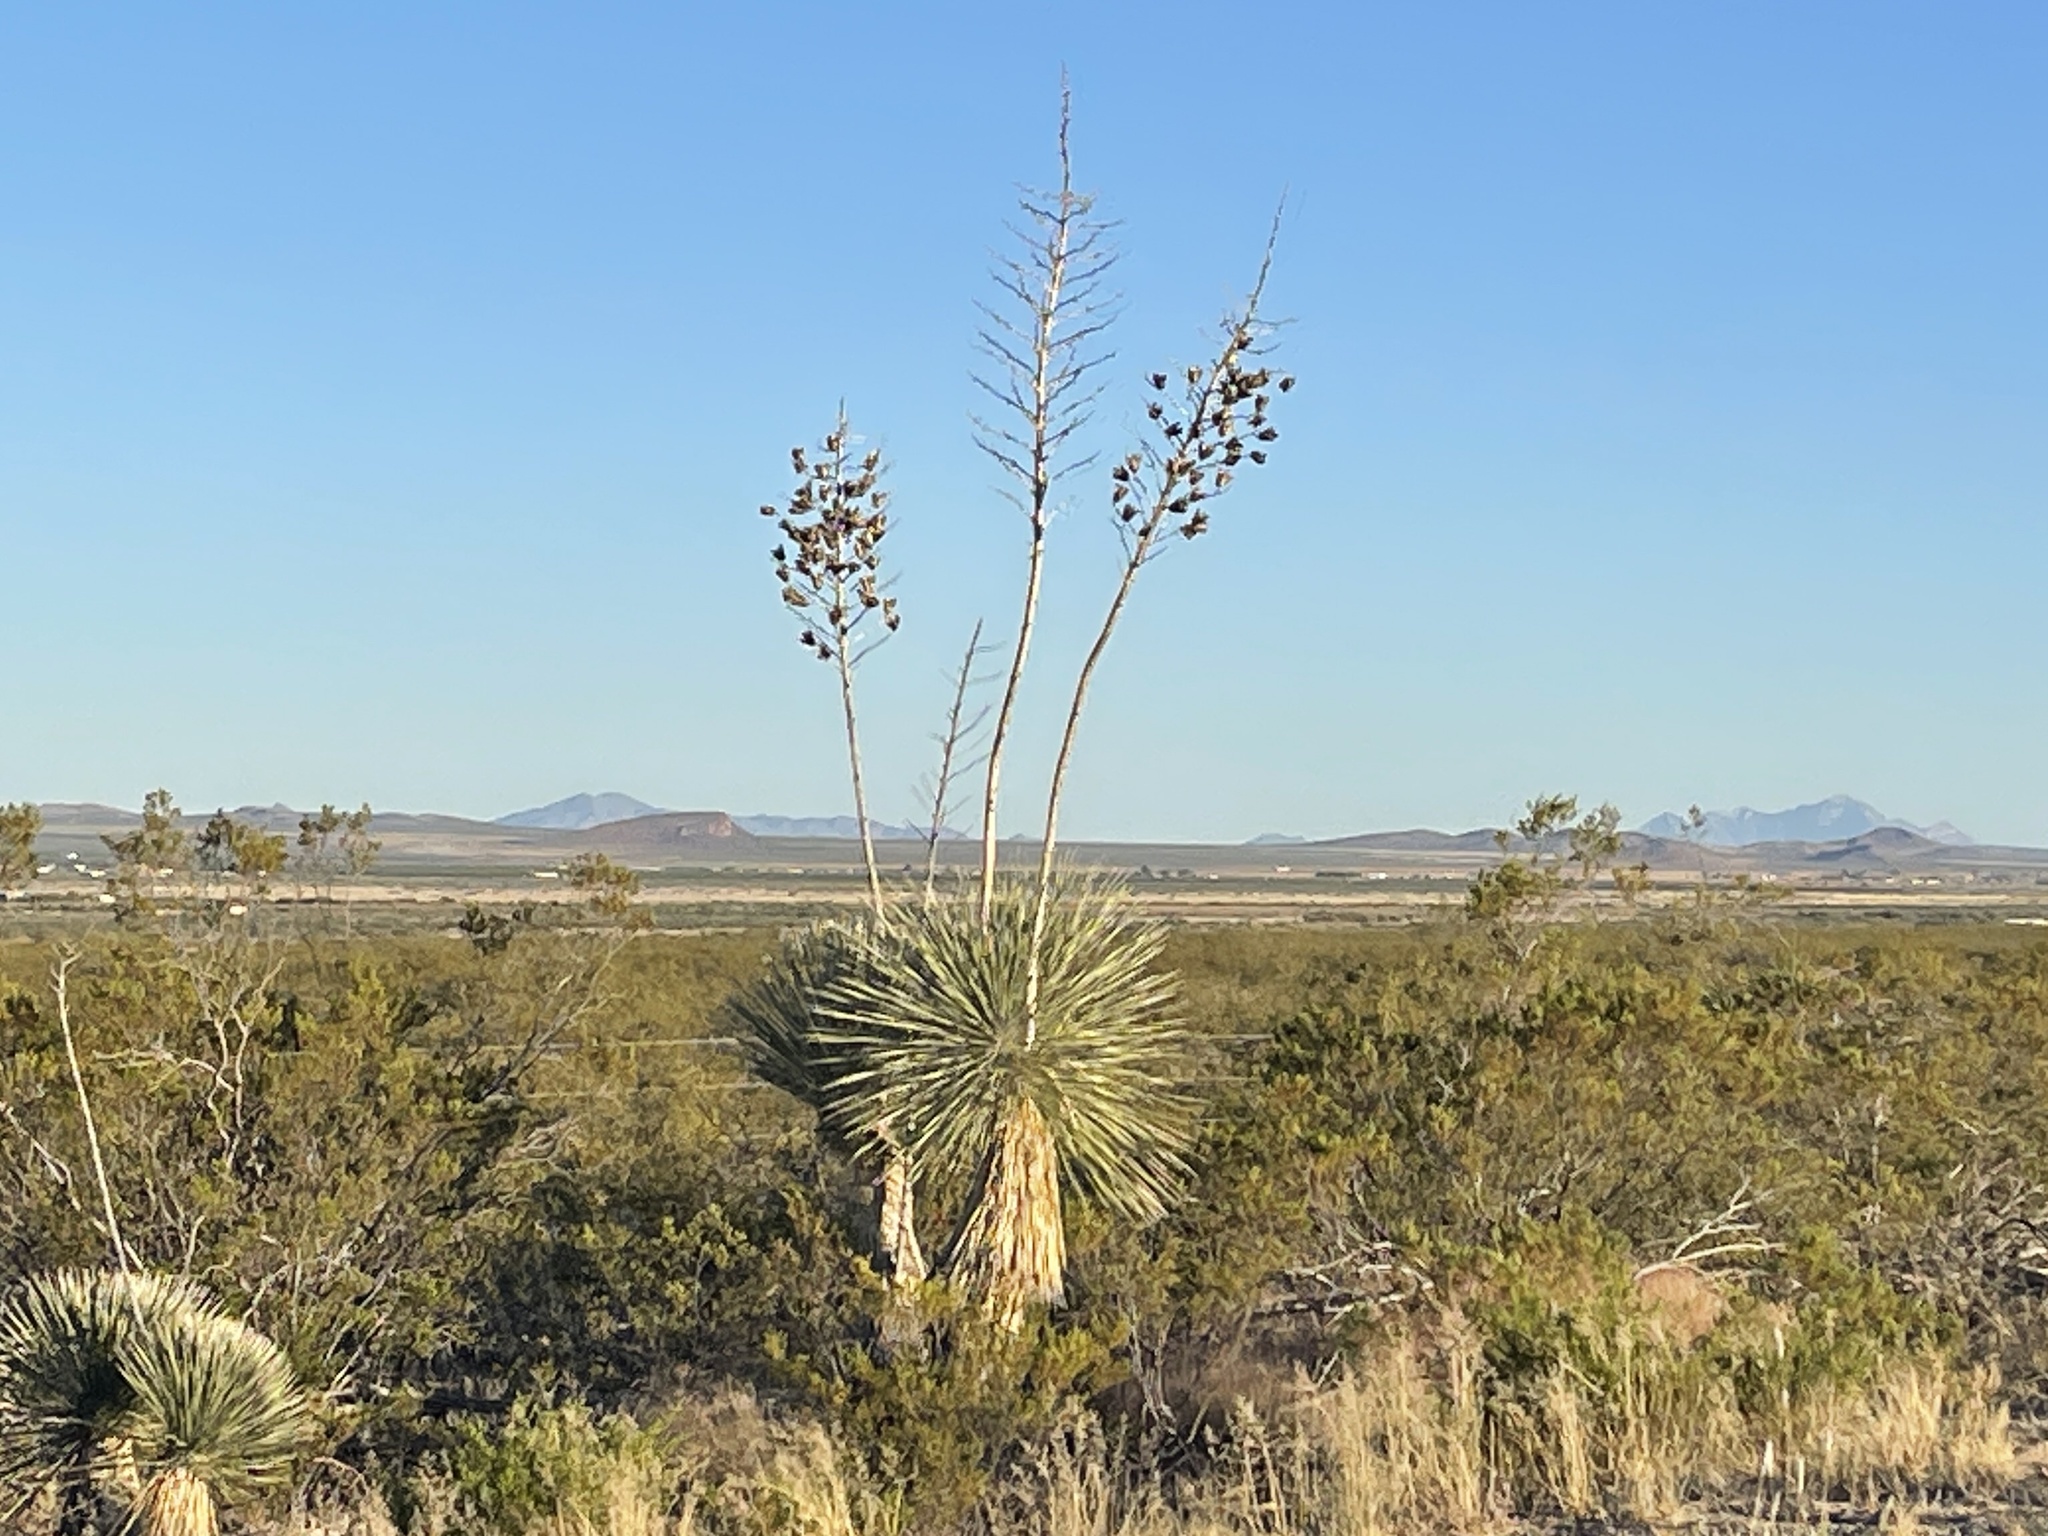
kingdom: Plantae
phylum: Tracheophyta
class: Liliopsida
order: Asparagales
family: Asparagaceae
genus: Yucca
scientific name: Yucca elata
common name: Palmella
